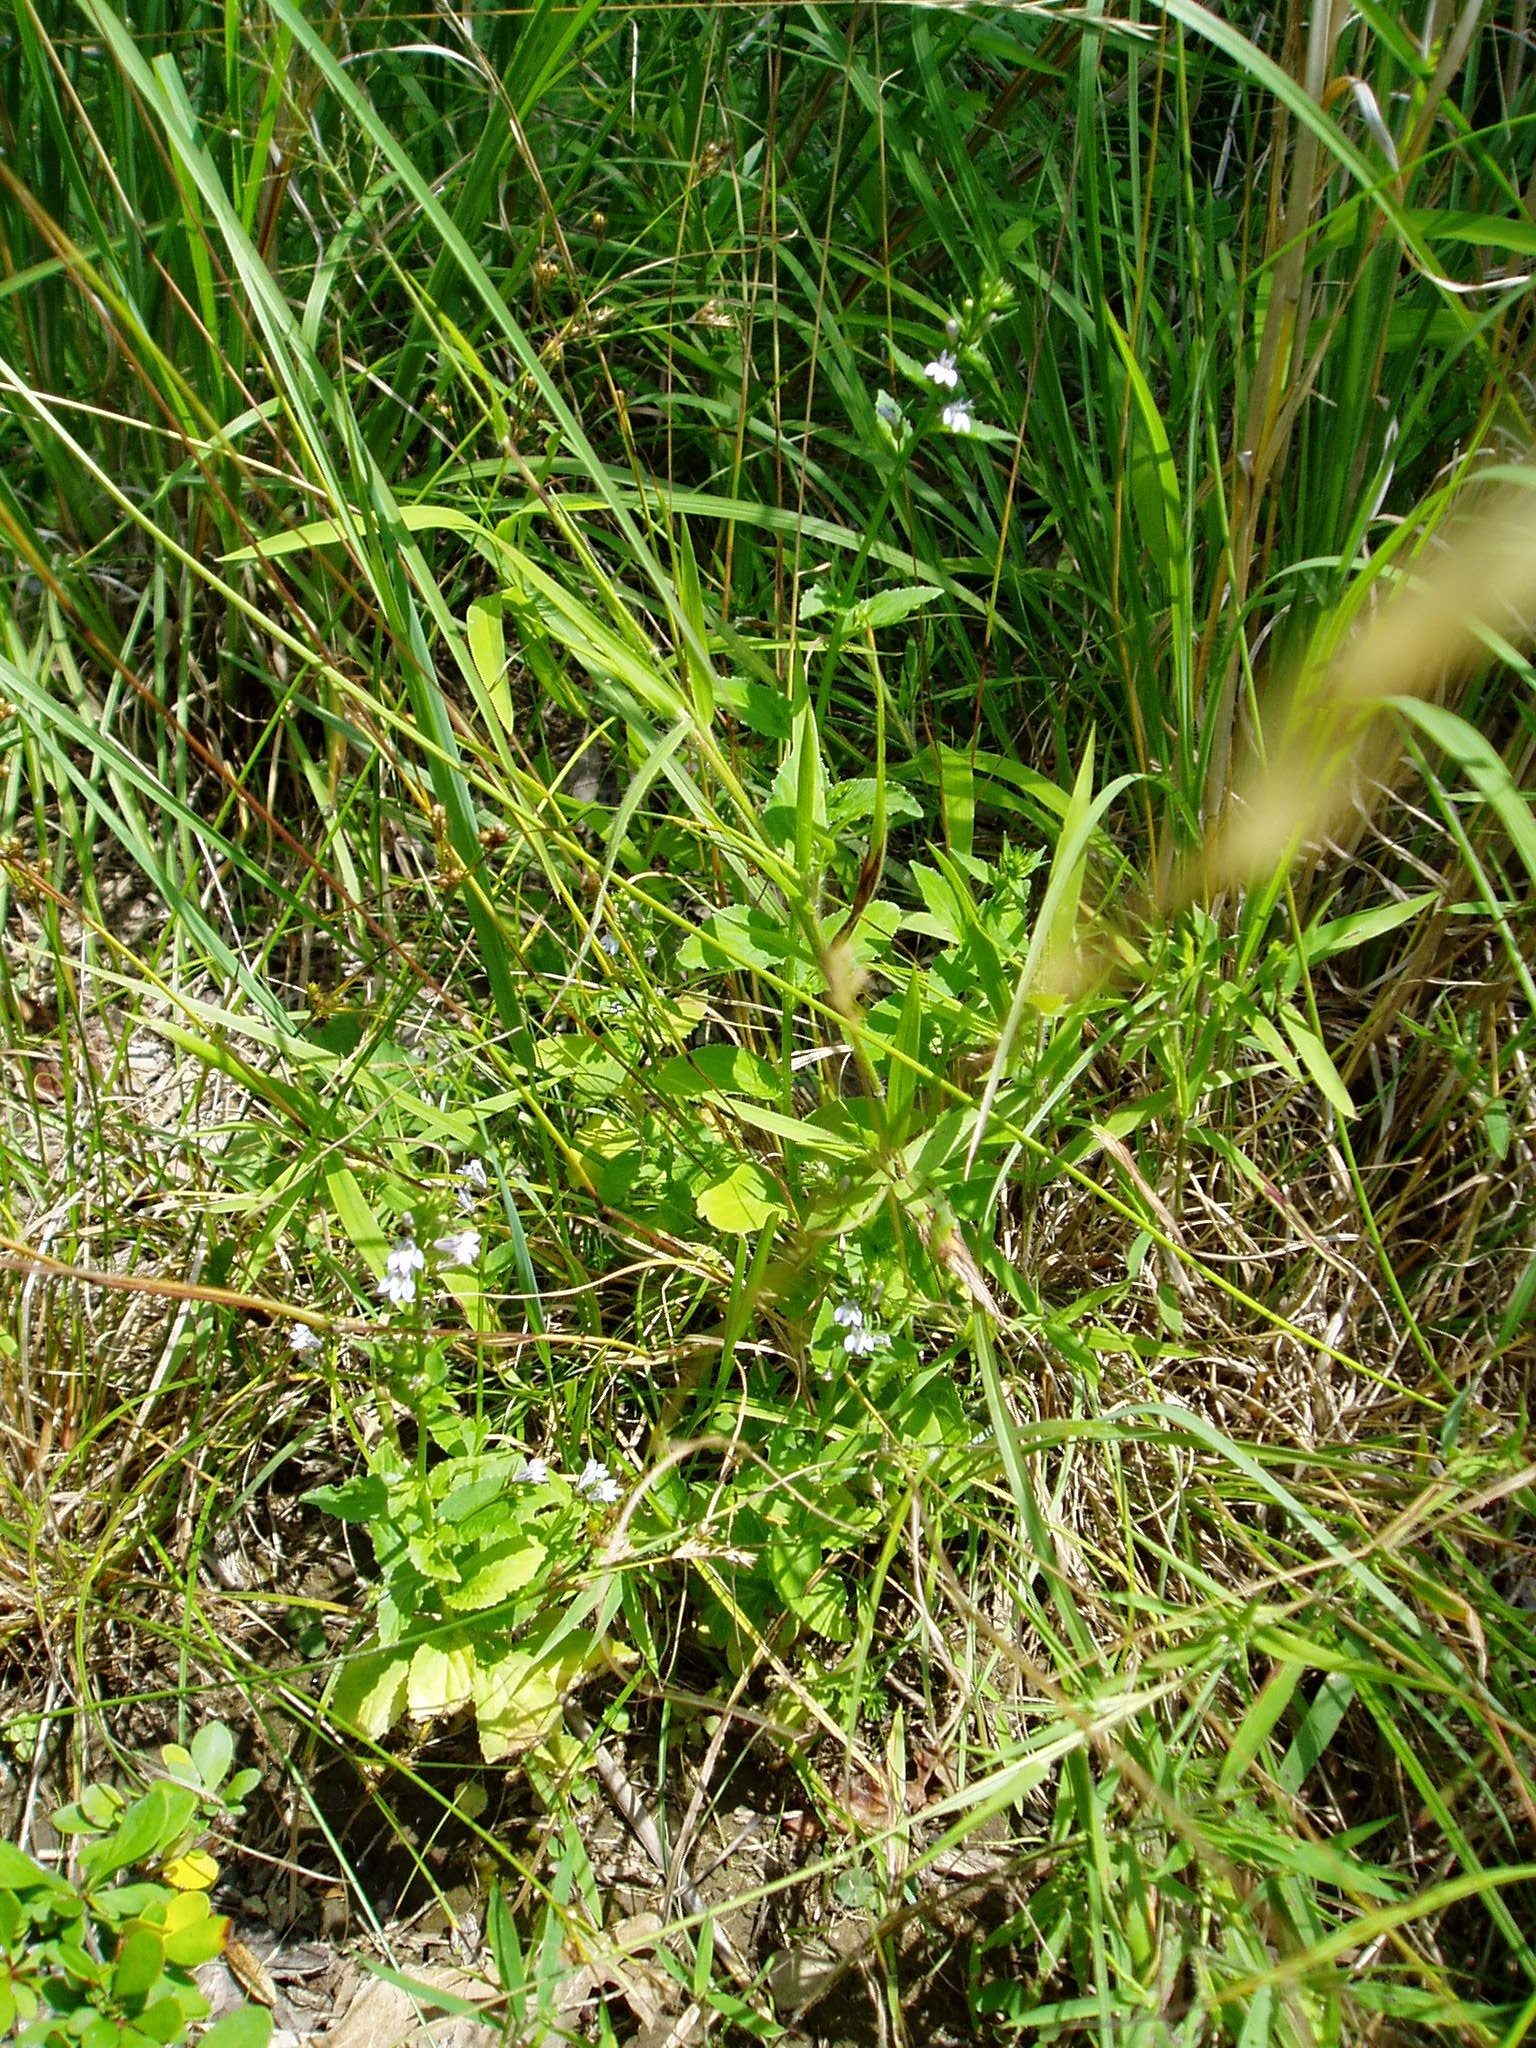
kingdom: Plantae
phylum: Tracheophyta
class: Magnoliopsida
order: Asterales
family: Campanulaceae
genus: Lobelia
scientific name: Lobelia inflata
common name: Indian tobacco
